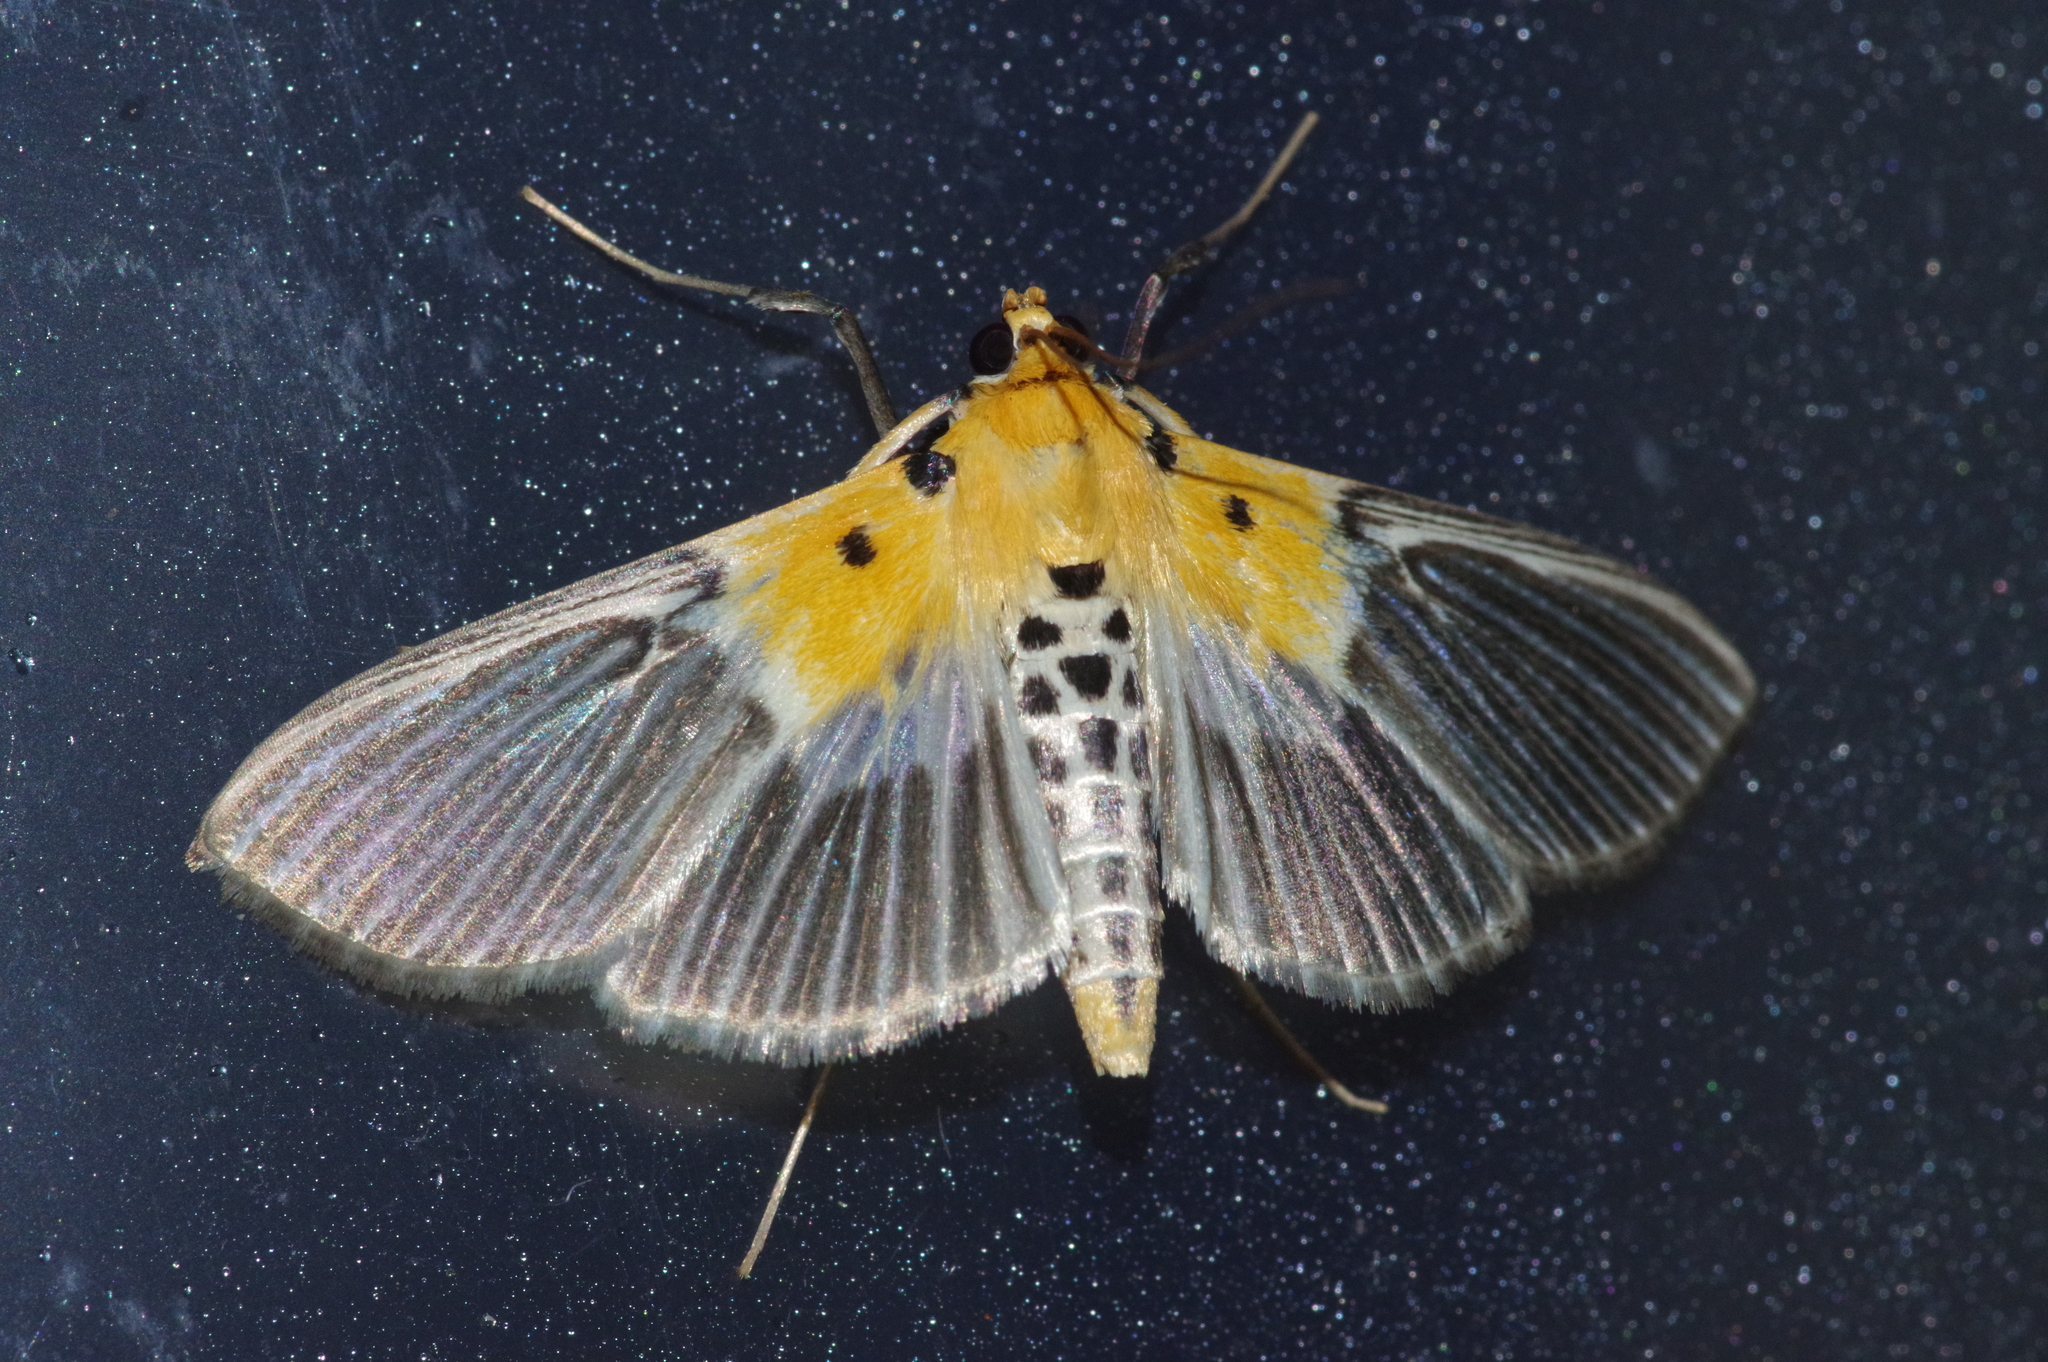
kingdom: Animalia
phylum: Arthropoda
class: Insecta
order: Lepidoptera
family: Crambidae
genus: Nevrina
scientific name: Nevrina procopia
